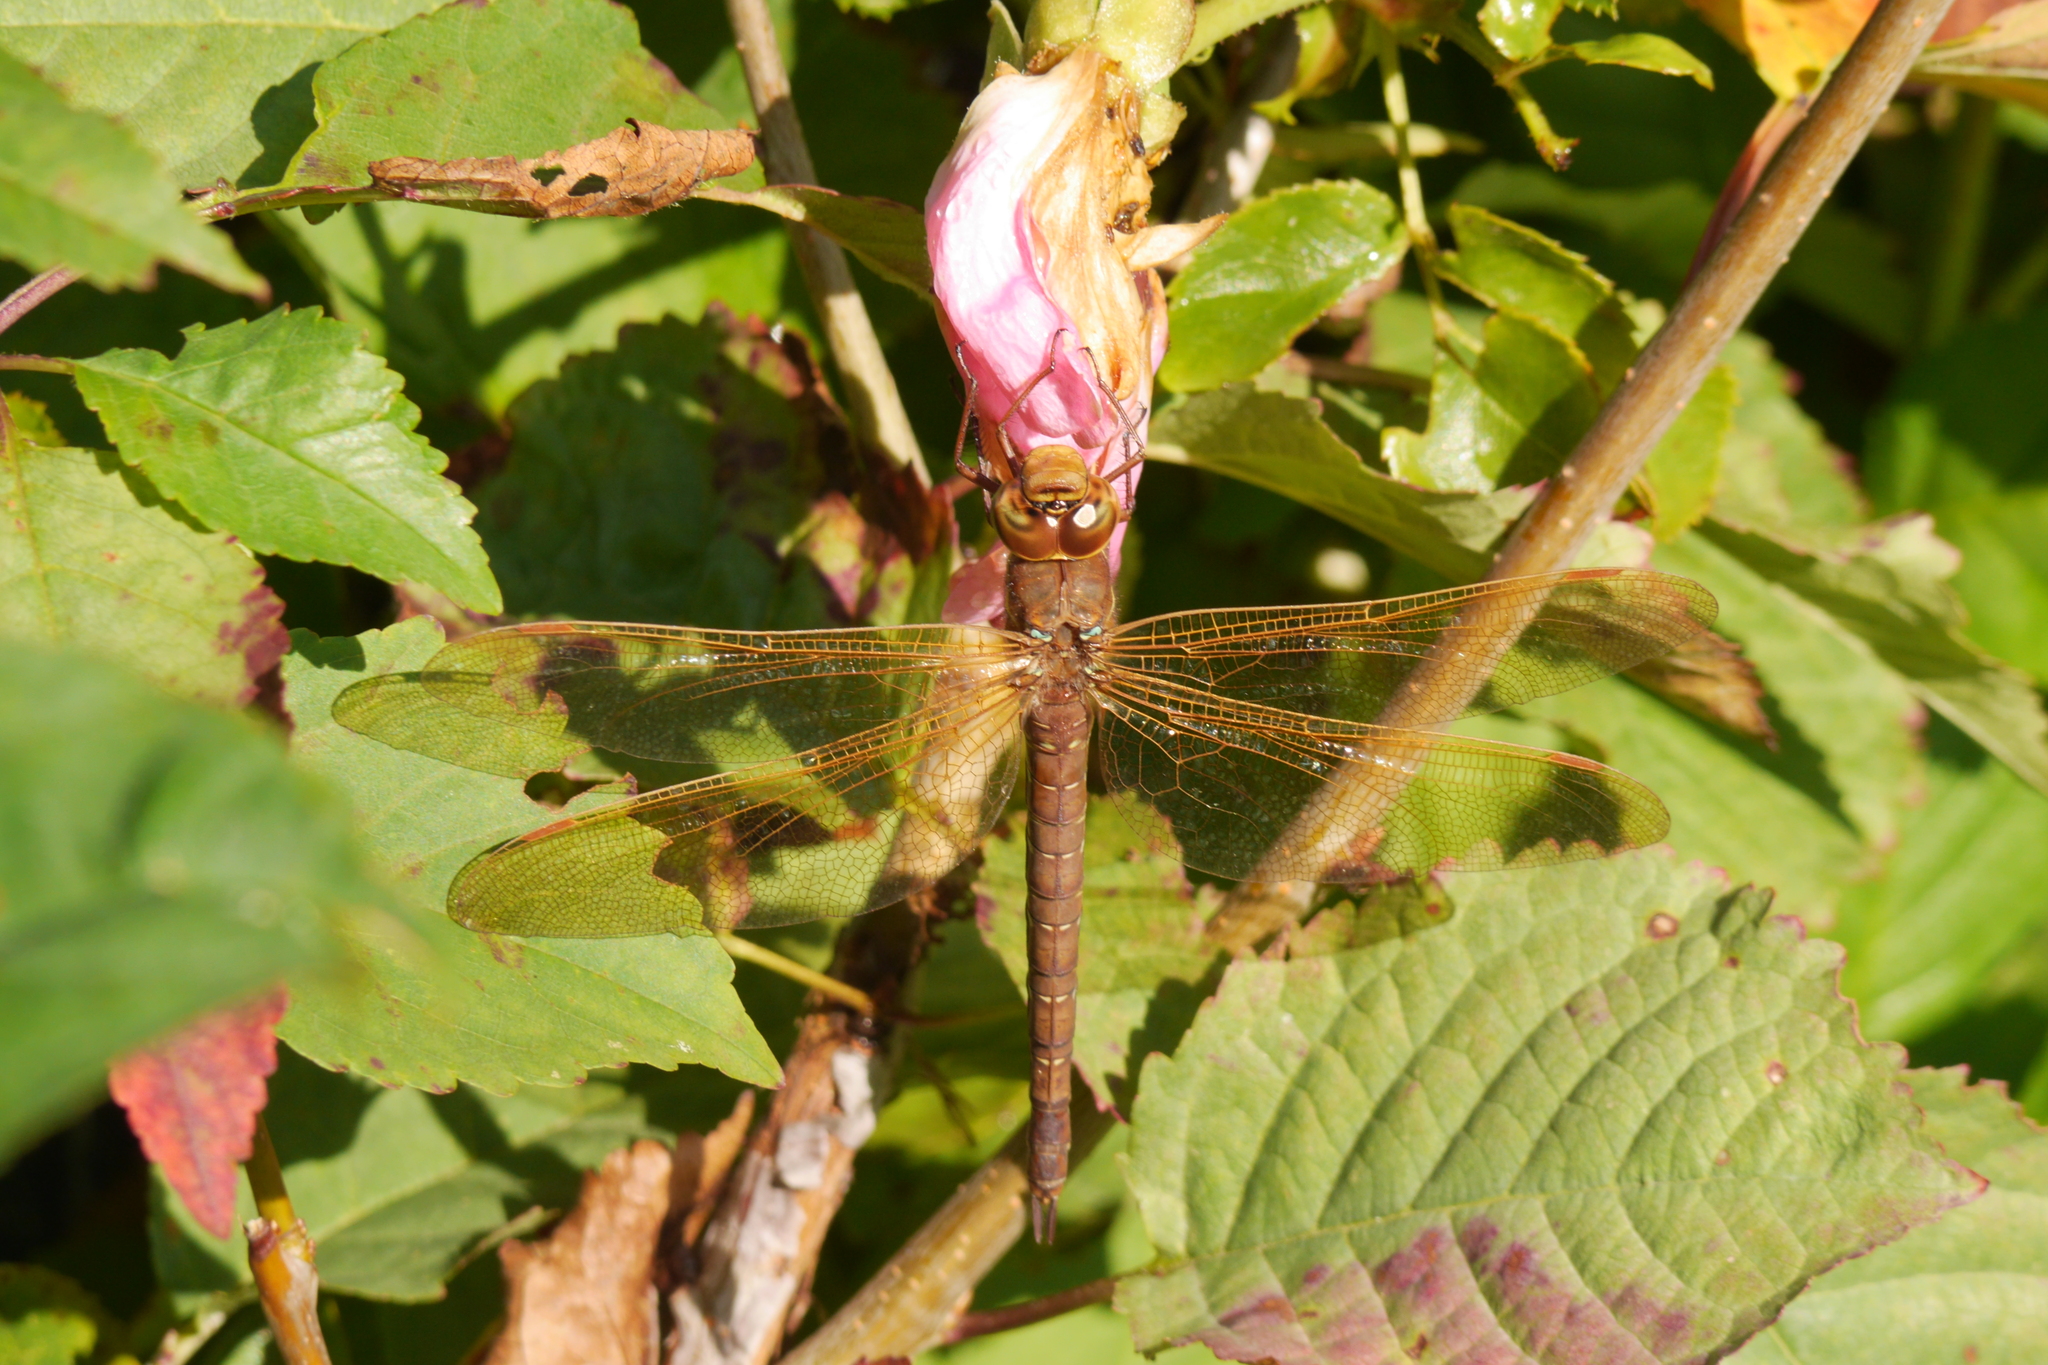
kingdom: Animalia
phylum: Arthropoda
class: Insecta
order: Odonata
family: Aeshnidae
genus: Aeshna
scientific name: Aeshna grandis
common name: Brown hawker
